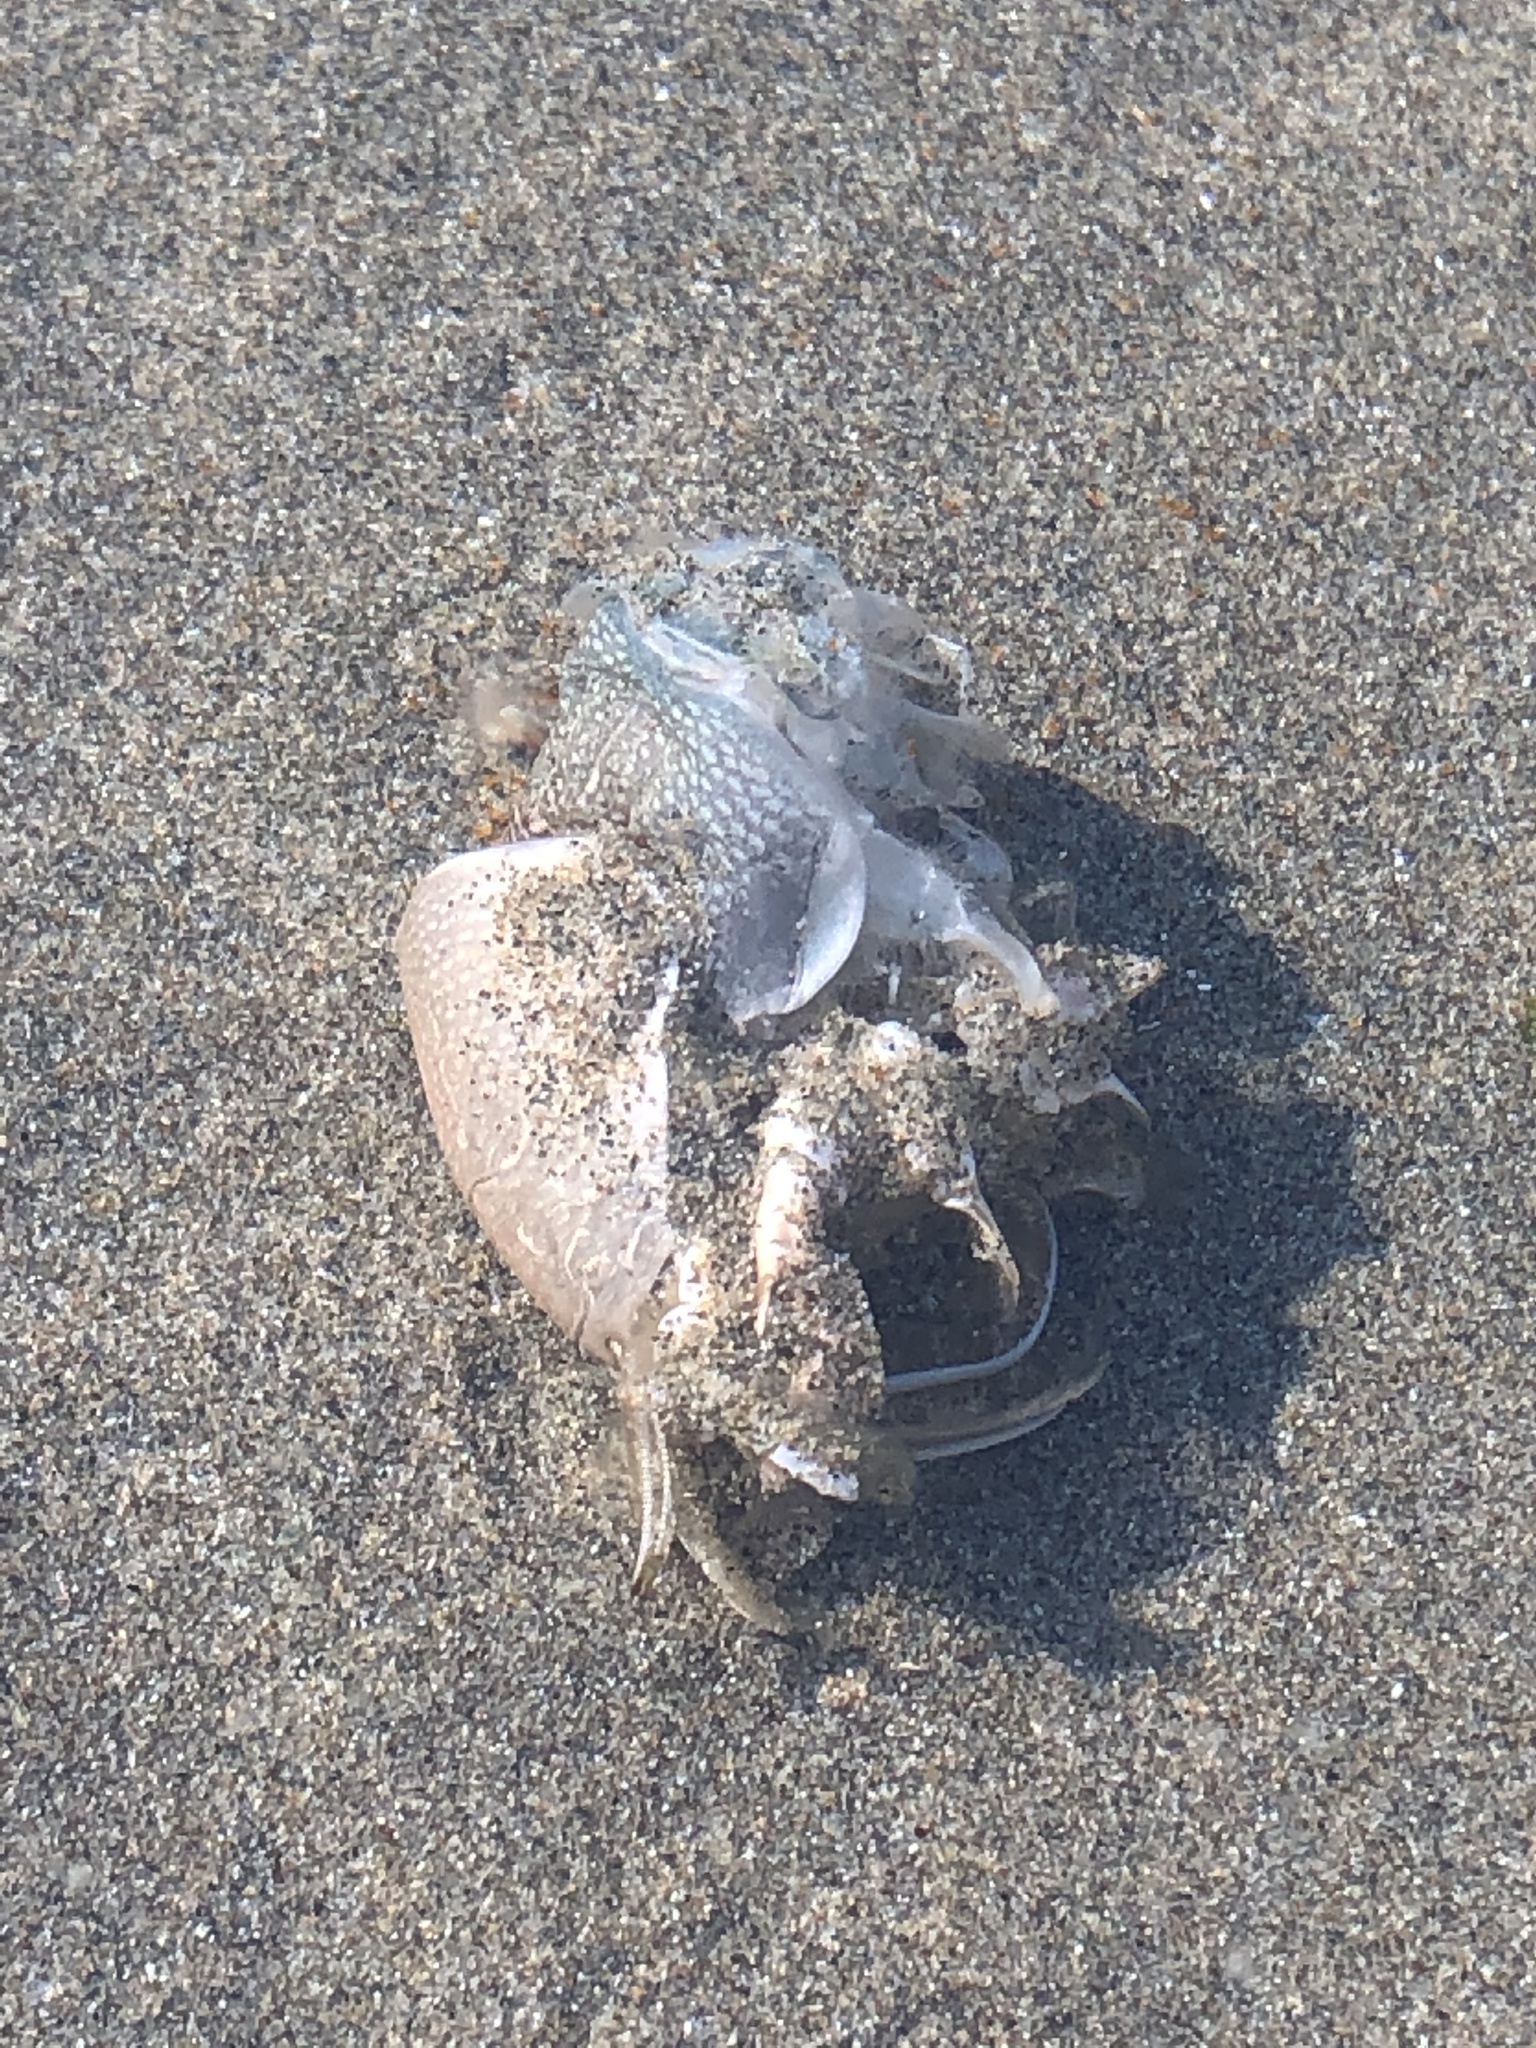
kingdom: Animalia
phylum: Arthropoda
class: Malacostraca
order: Decapoda
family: Hippidae
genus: Emerita
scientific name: Emerita analoga
